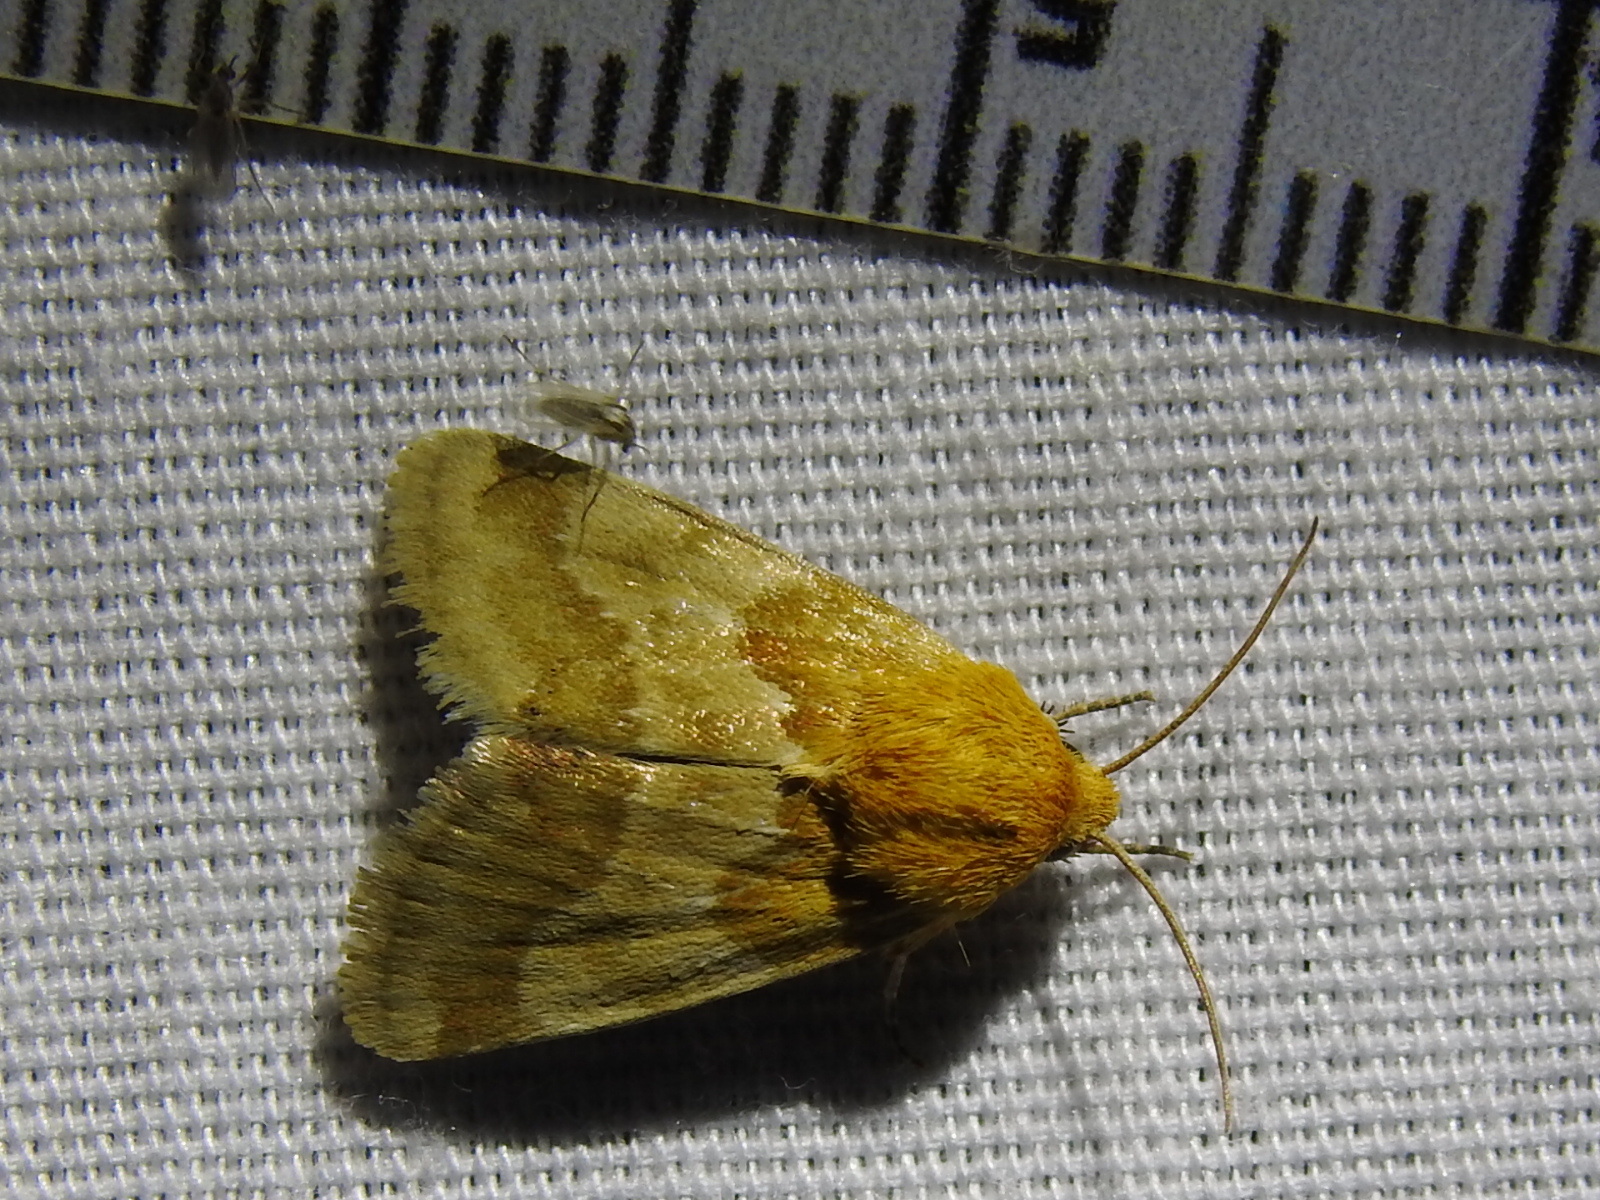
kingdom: Animalia
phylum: Arthropoda
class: Insecta
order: Lepidoptera
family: Noctuidae
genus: Schinia
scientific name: Schinia siren
